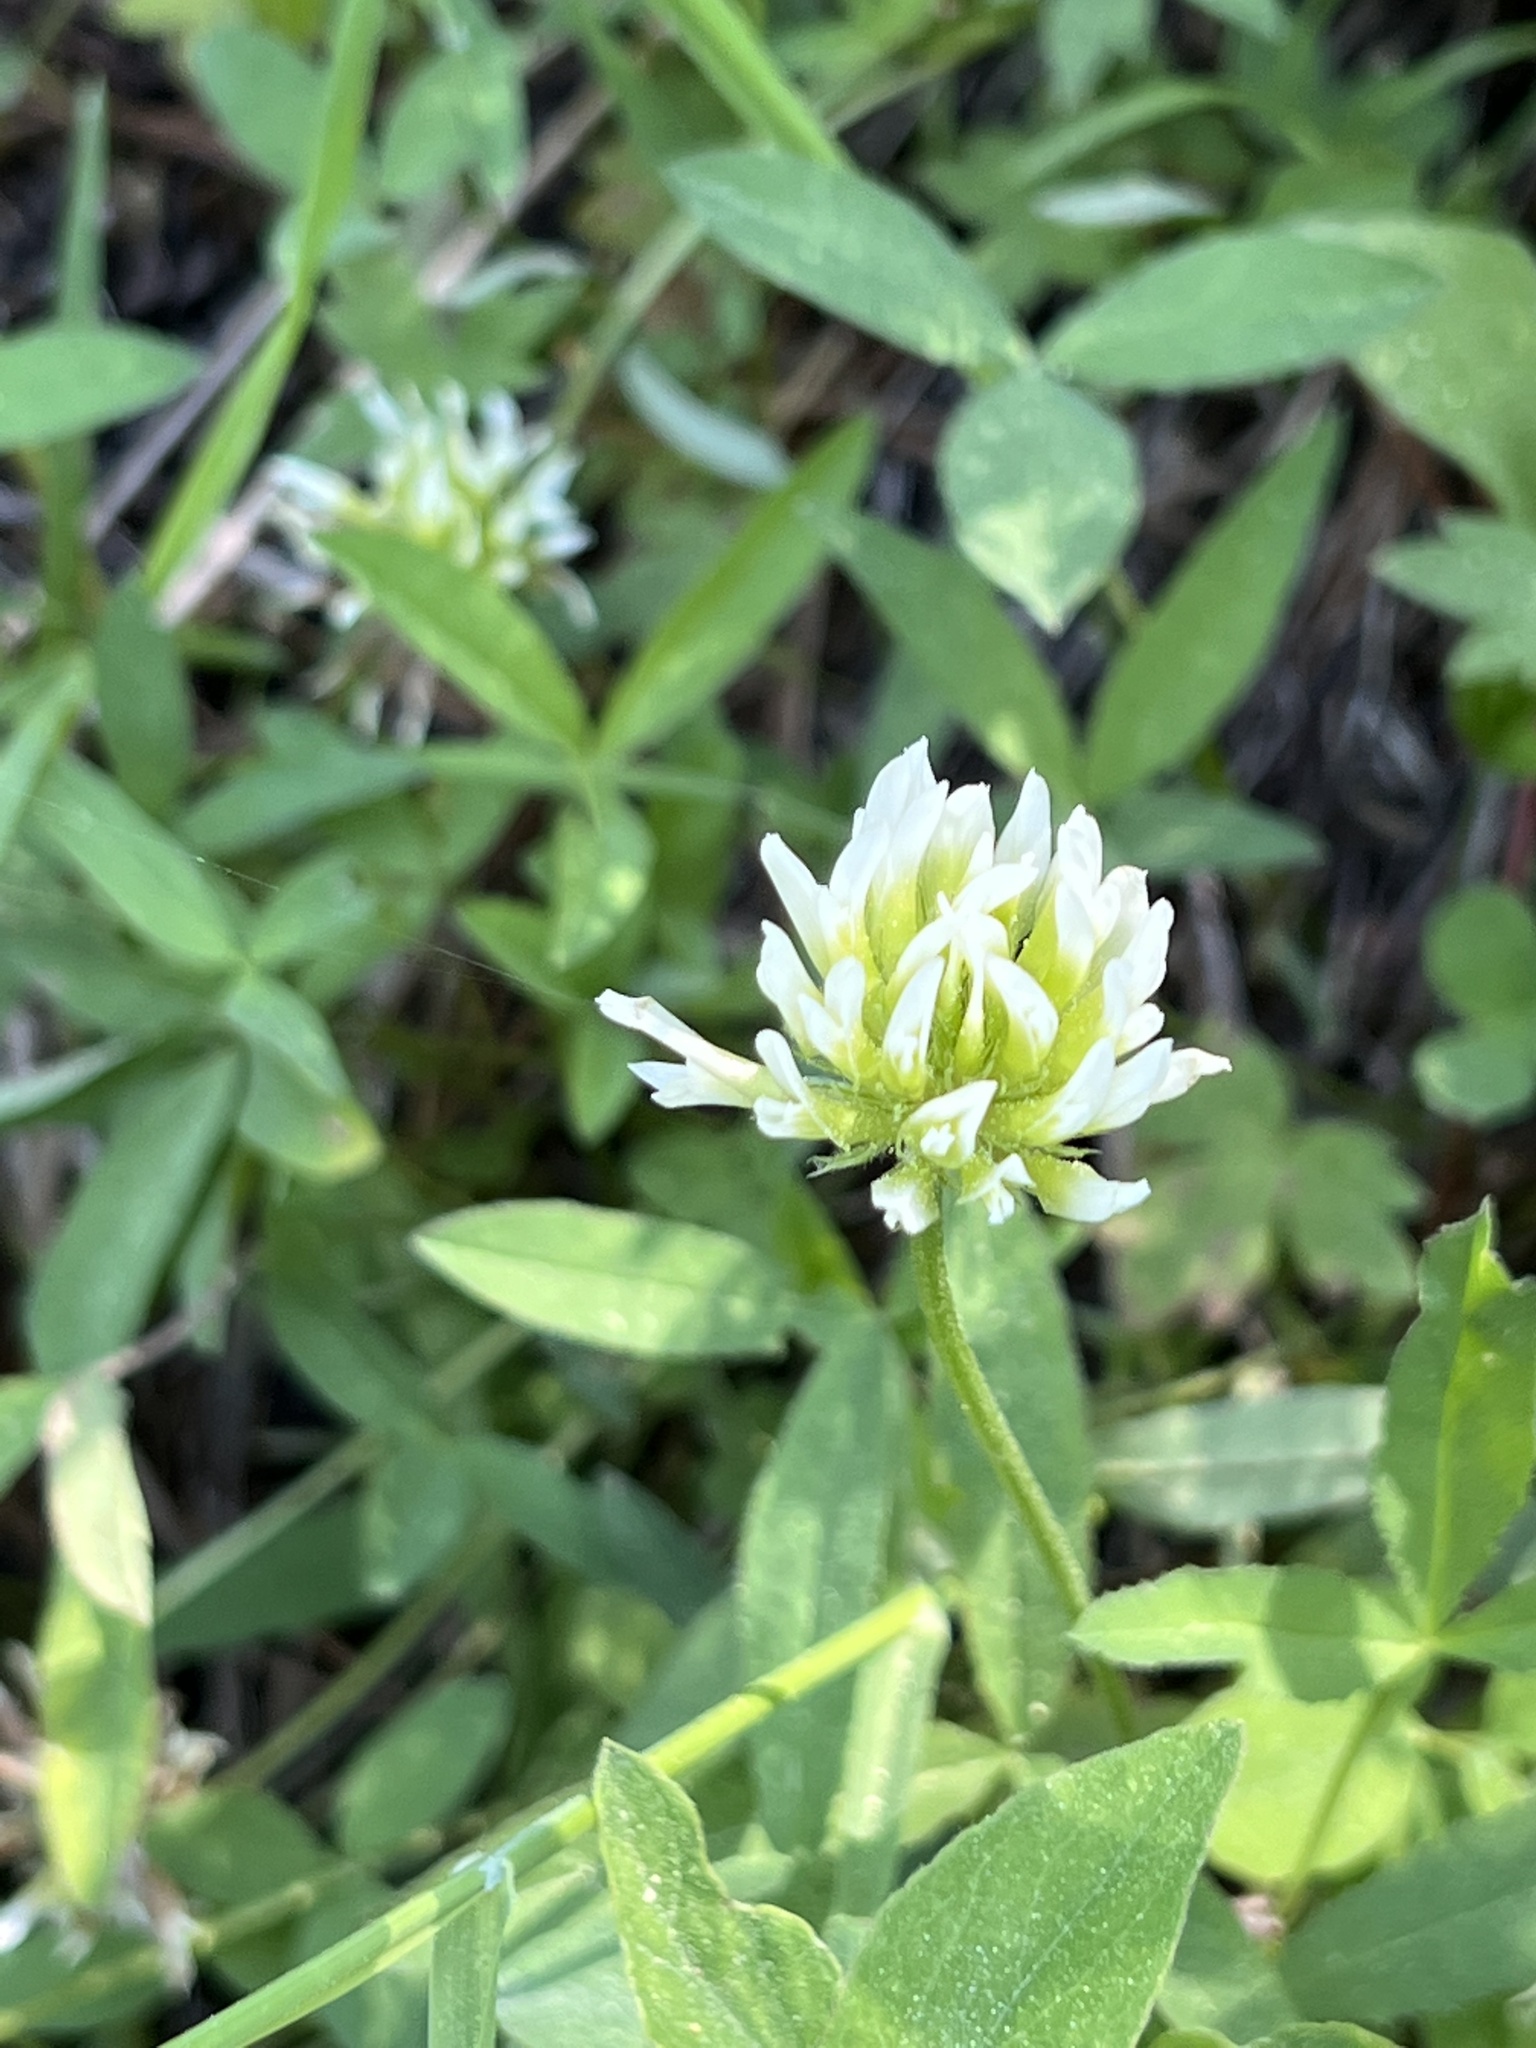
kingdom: Plantae
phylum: Tracheophyta
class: Magnoliopsida
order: Fabales
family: Fabaceae
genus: Trifolium
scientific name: Trifolium longipes
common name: Long-stalk clover
